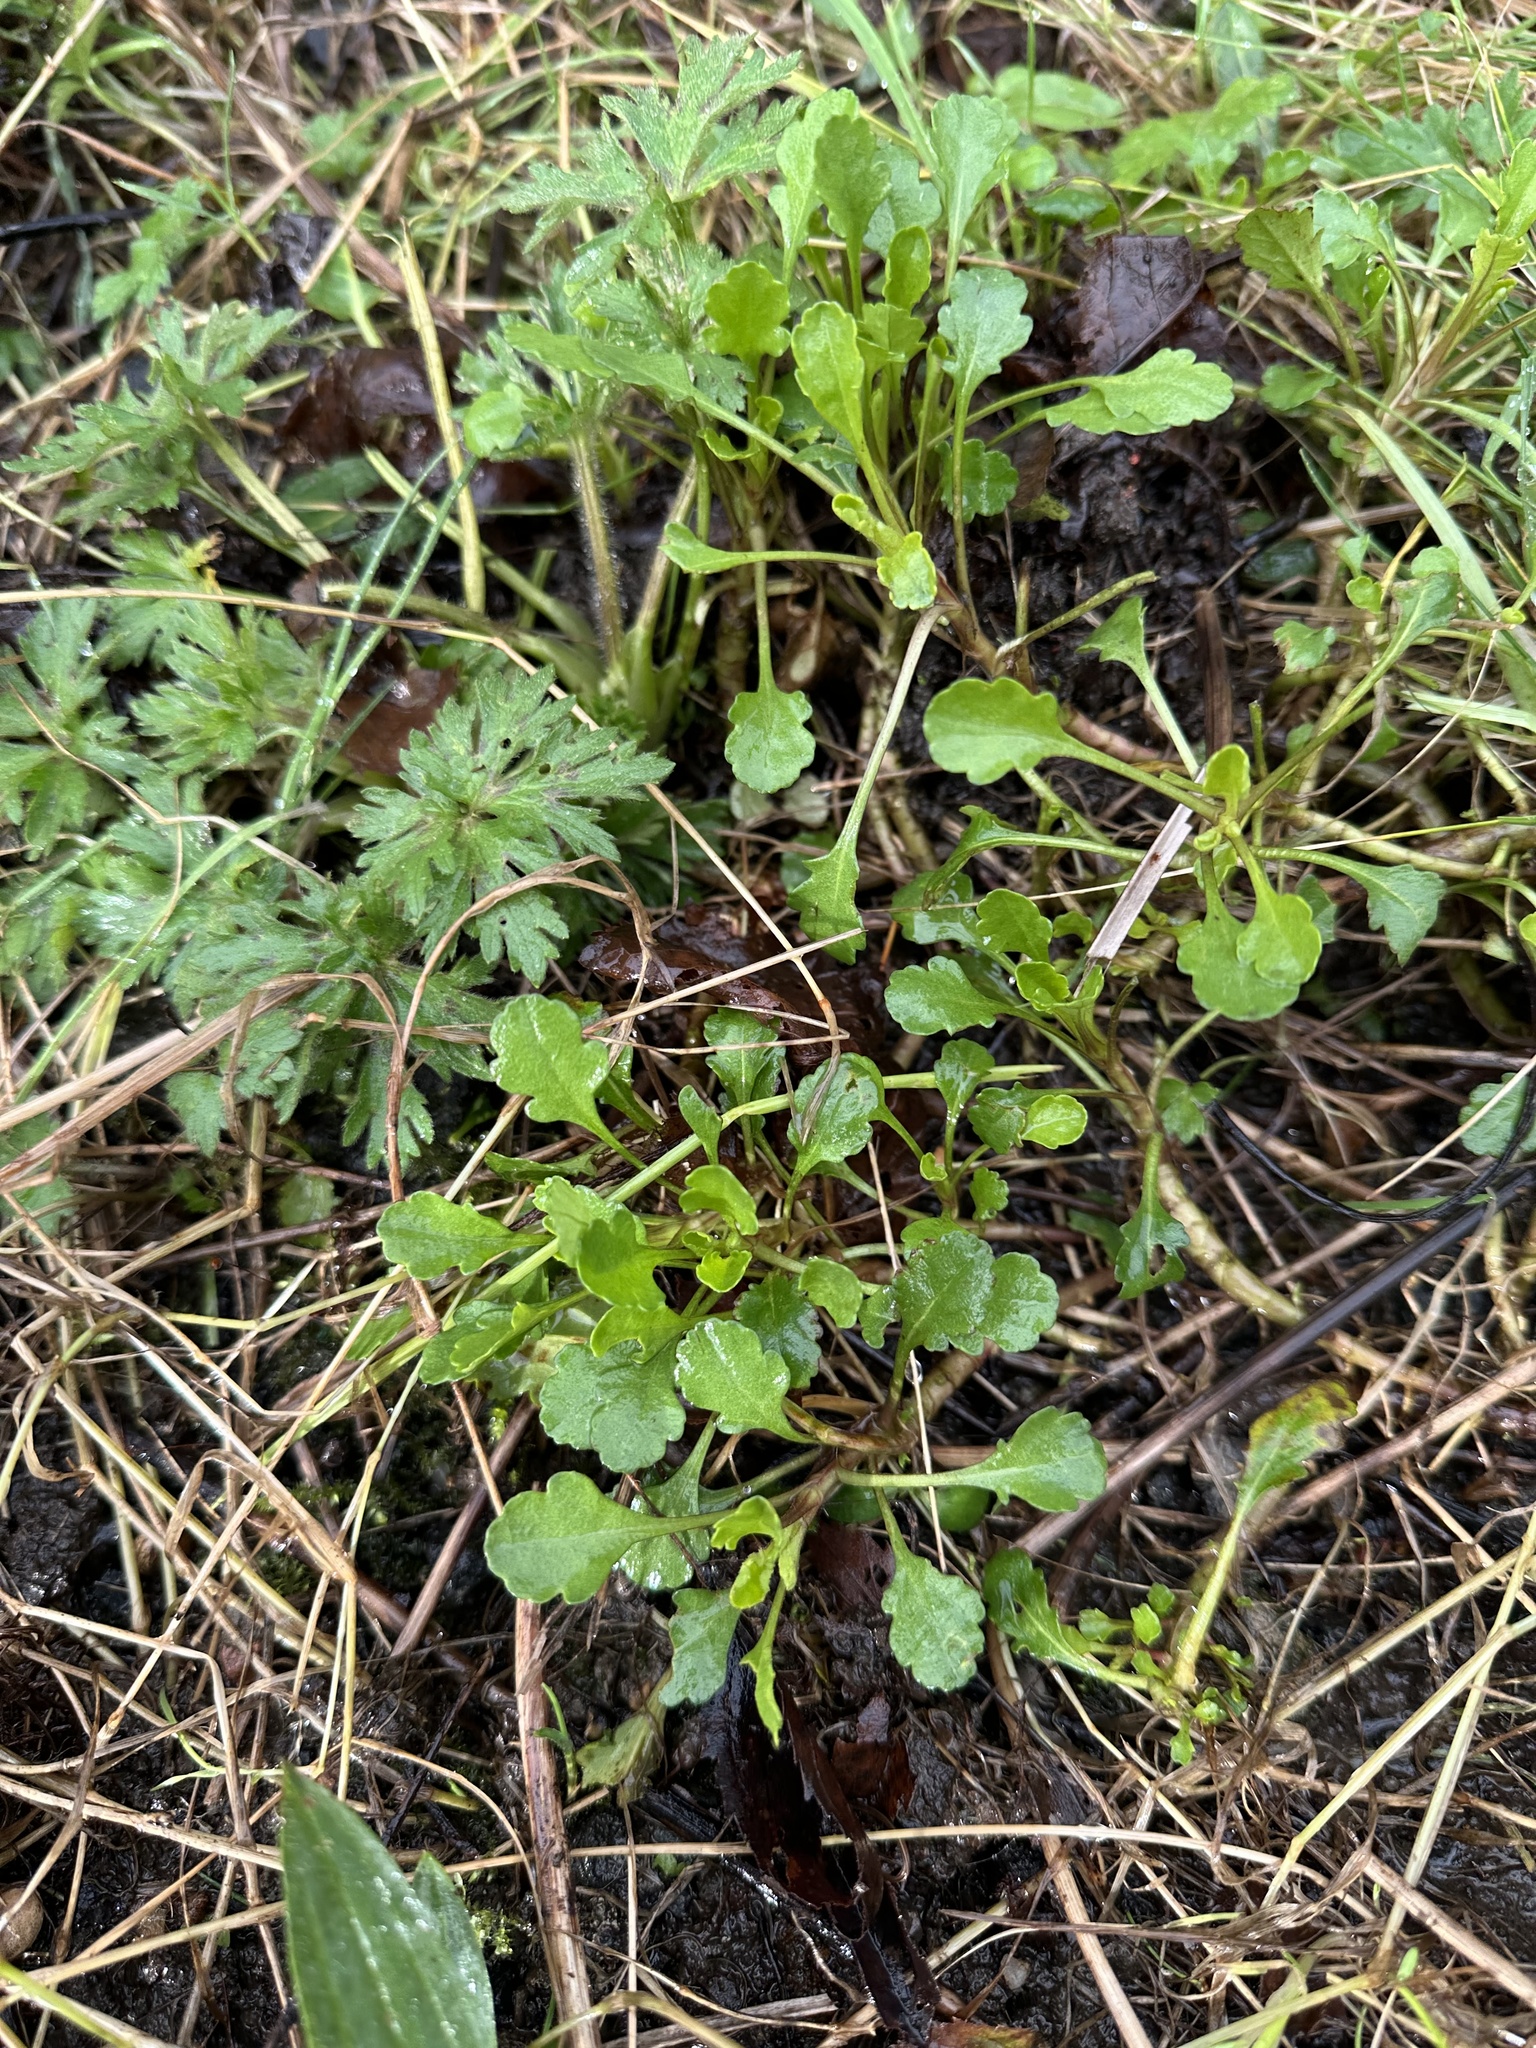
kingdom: Plantae
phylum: Tracheophyta
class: Magnoliopsida
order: Asterales
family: Asteraceae
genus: Leucanthemum
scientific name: Leucanthemum vulgare
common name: Oxeye daisy
